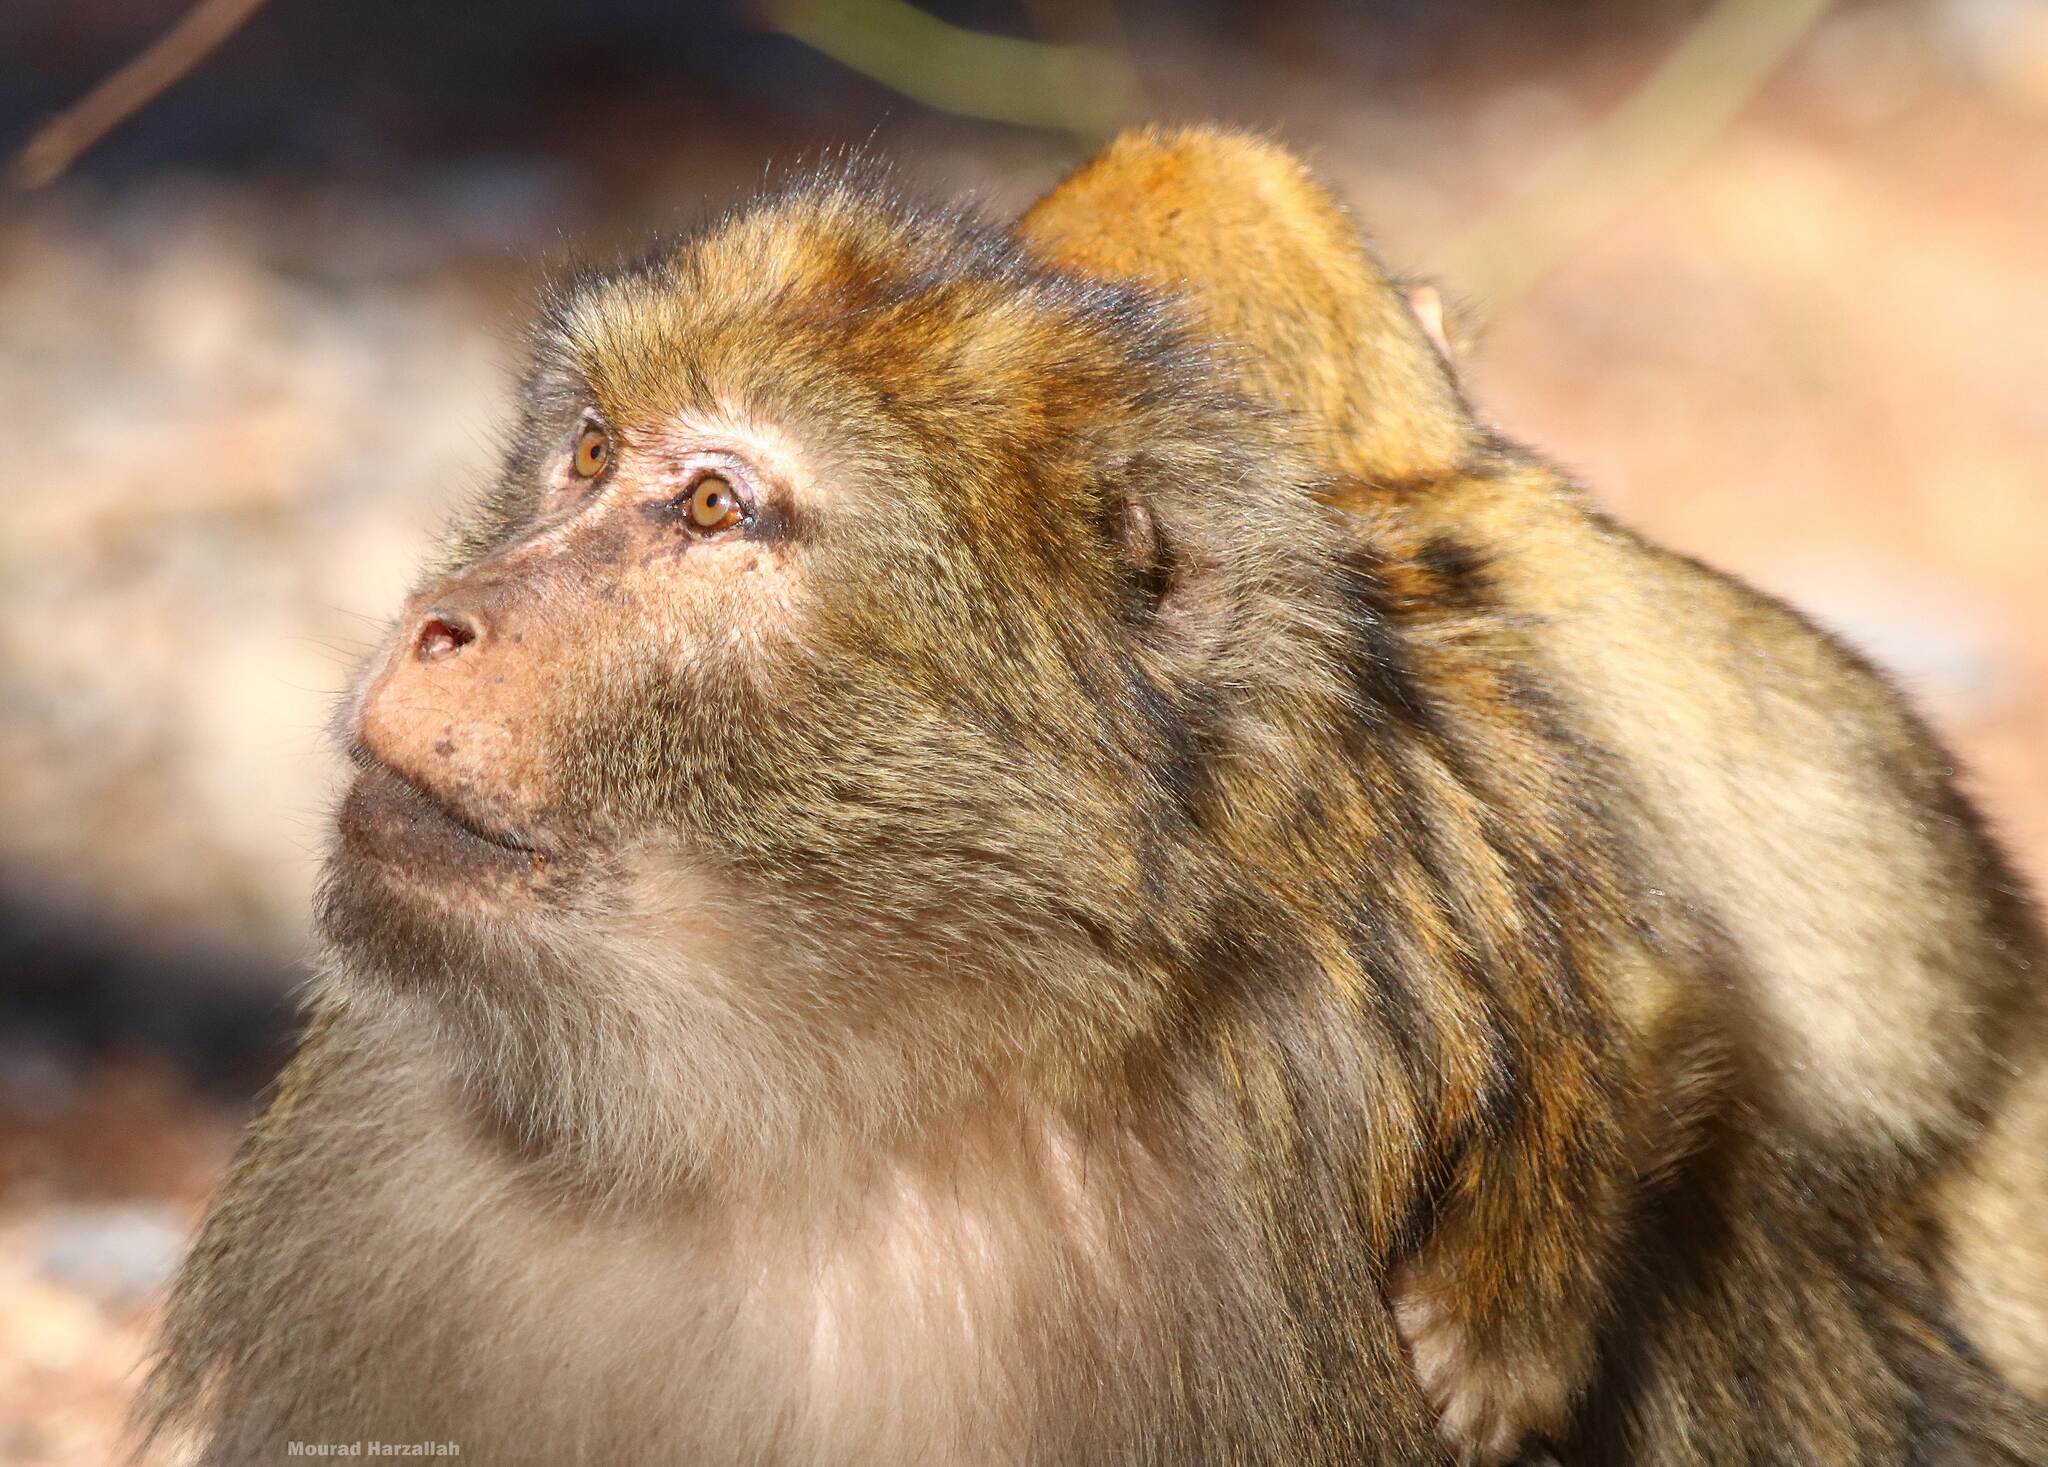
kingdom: Animalia
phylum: Chordata
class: Mammalia
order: Primates
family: Cercopithecidae
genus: Macaca
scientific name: Macaca sylvanus
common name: Barbary macaque
